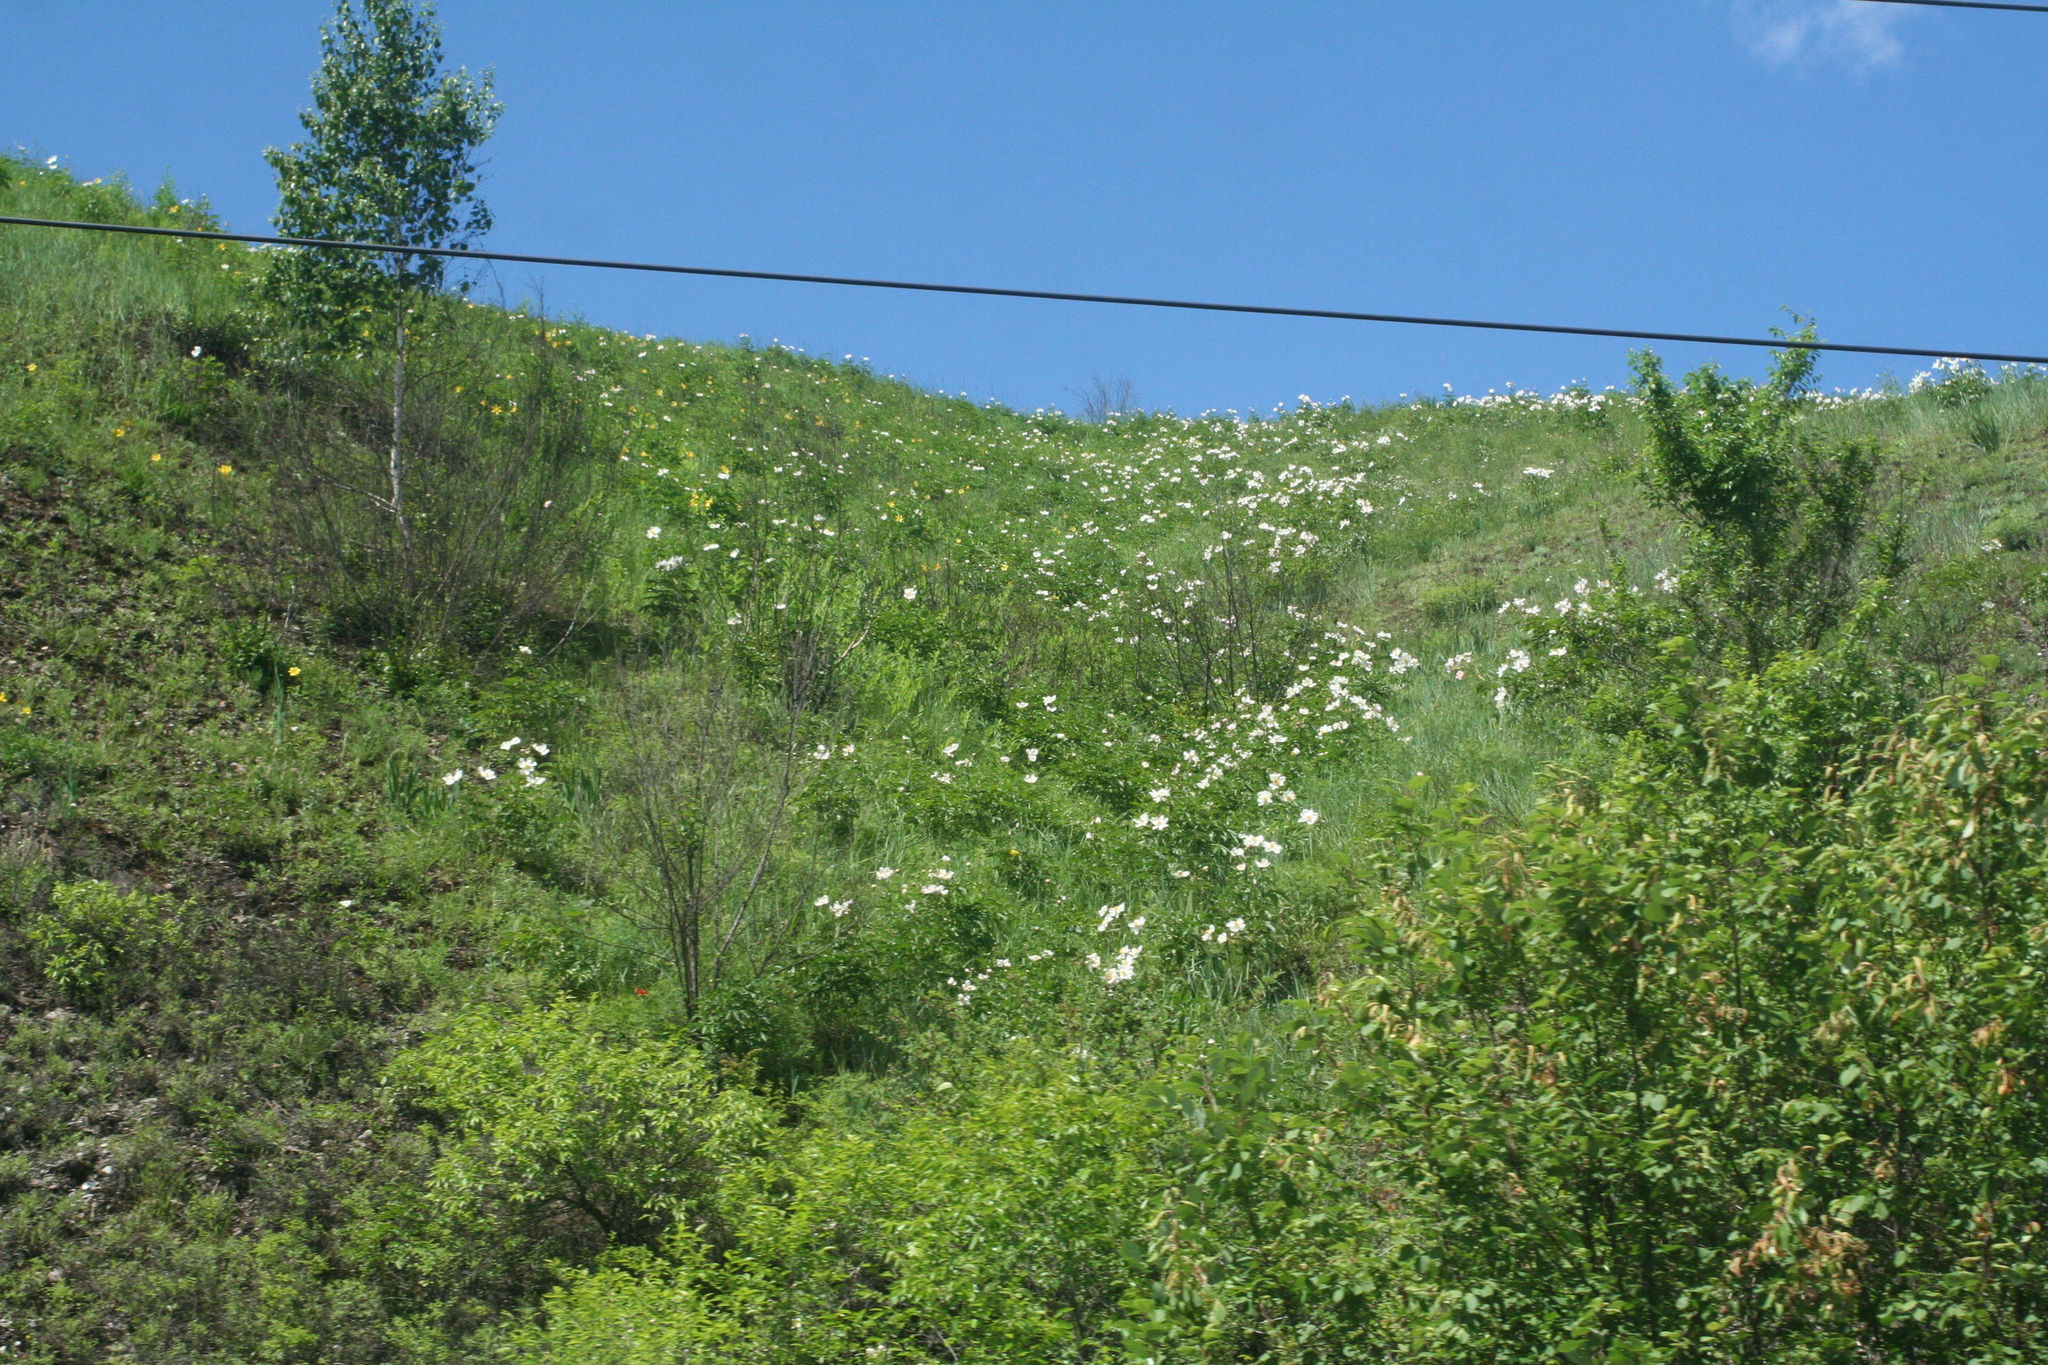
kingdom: Plantae
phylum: Tracheophyta
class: Magnoliopsida
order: Saxifragales
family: Paeoniaceae
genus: Paeonia
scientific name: Paeonia lactiflora
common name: Chinese peony
